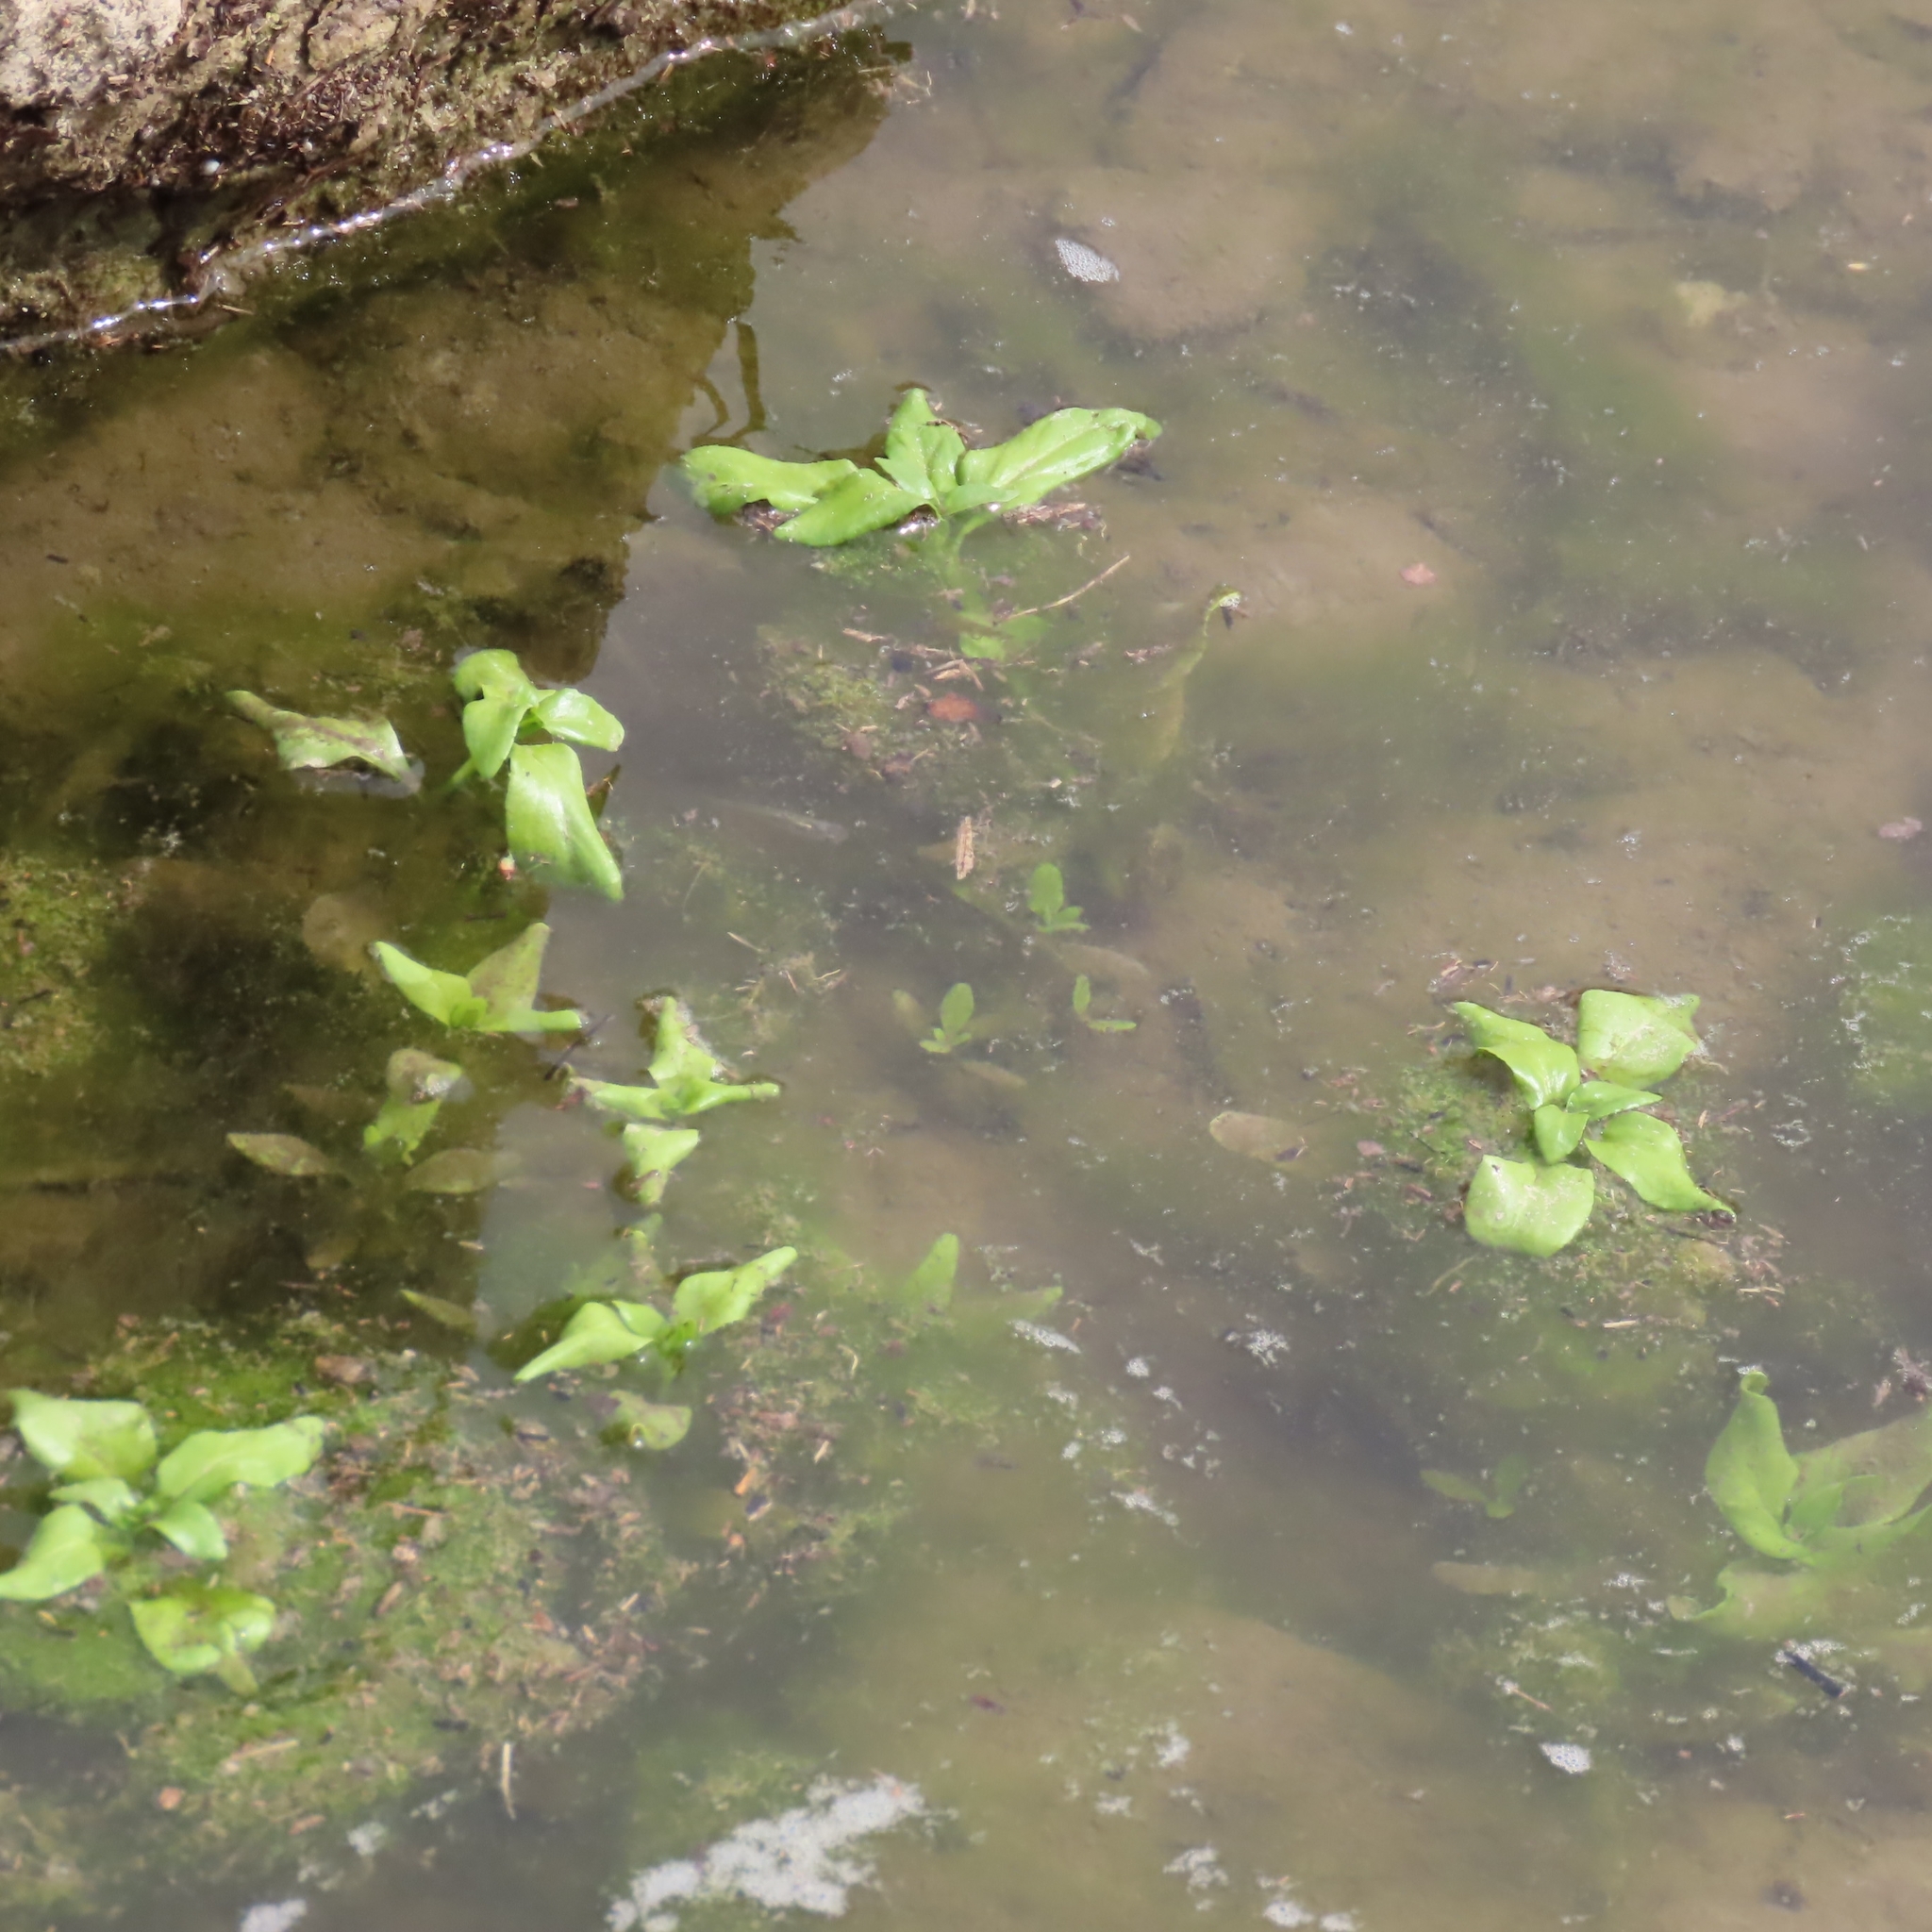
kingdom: Plantae
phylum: Tracheophyta
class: Magnoliopsida
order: Lamiales
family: Plantaginaceae
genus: Veronica
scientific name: Veronica anagallis-aquatica
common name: Water speedwell
